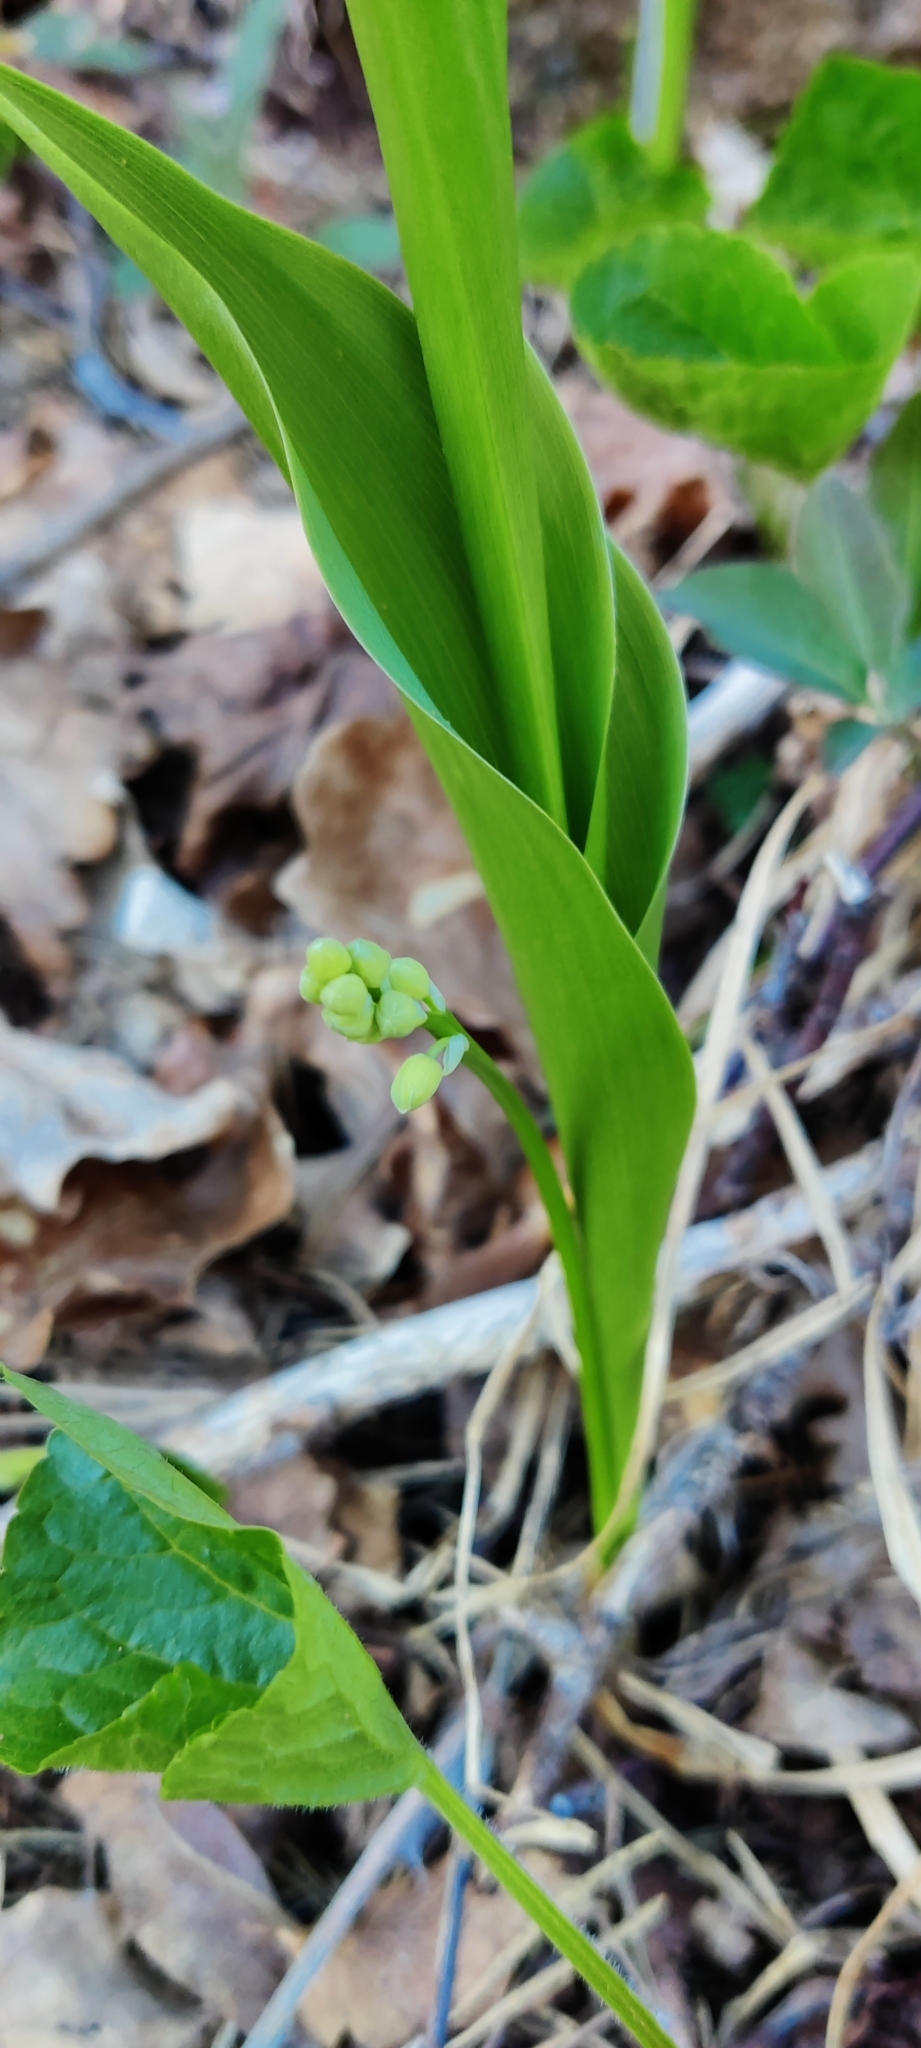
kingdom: Plantae
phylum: Tracheophyta
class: Liliopsida
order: Asparagales
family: Asparagaceae
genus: Convallaria
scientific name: Convallaria majalis
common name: Lily-of-the-valley
